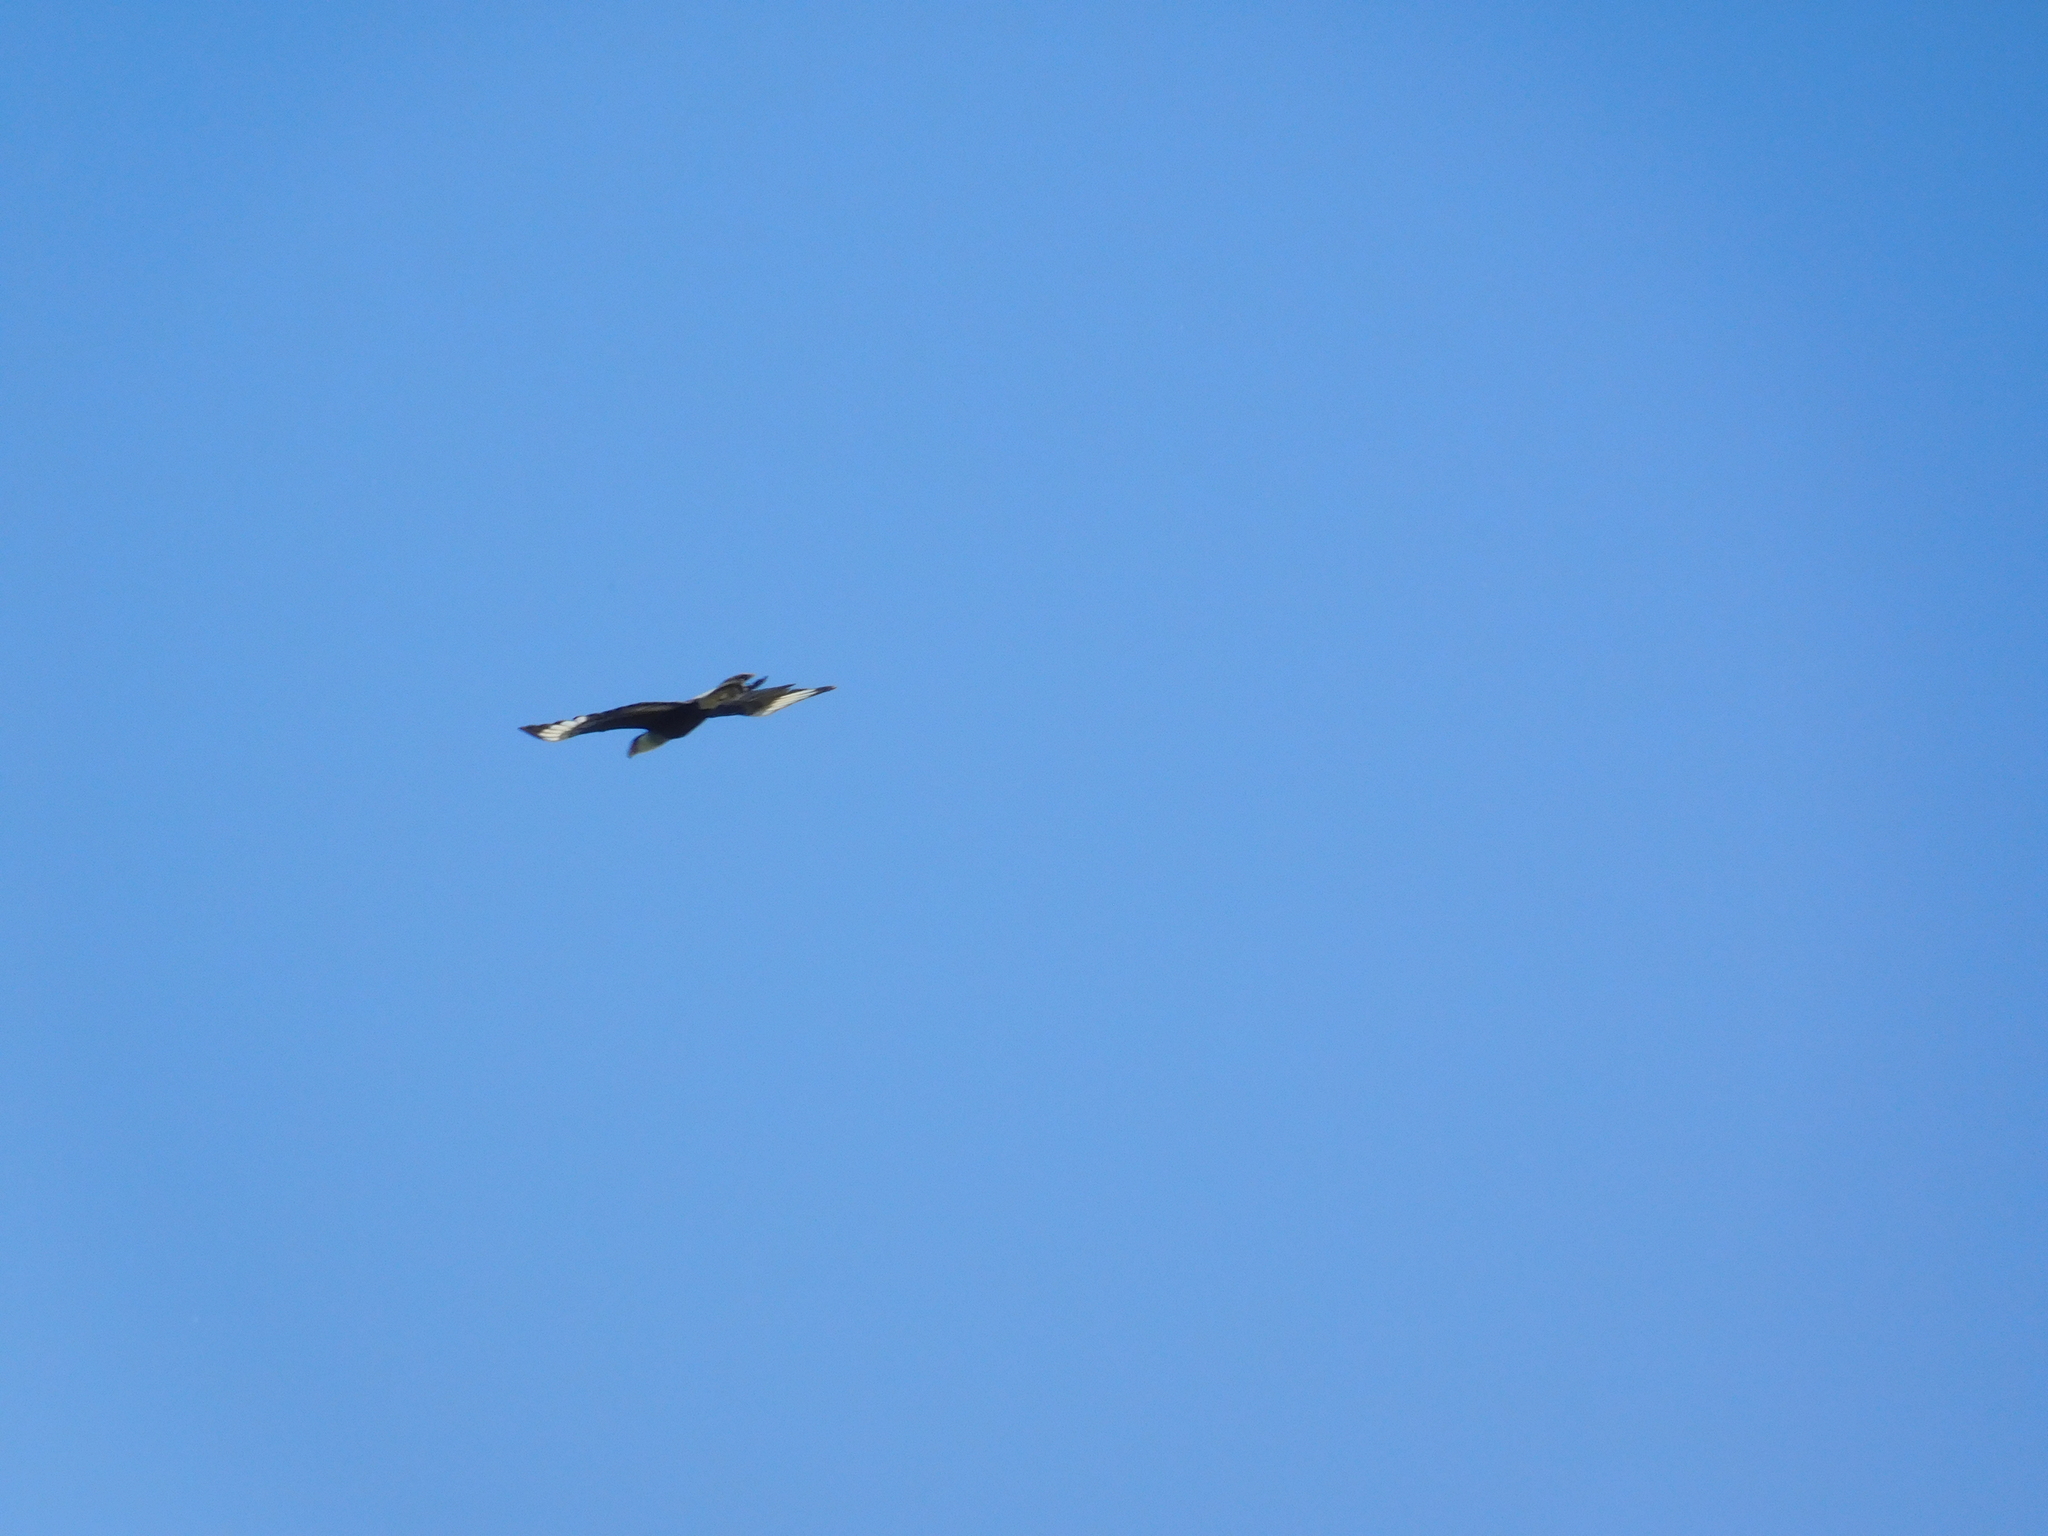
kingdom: Animalia
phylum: Chordata
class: Aves
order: Falconiformes
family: Falconidae
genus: Caracara
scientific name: Caracara plancus
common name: Southern caracara
